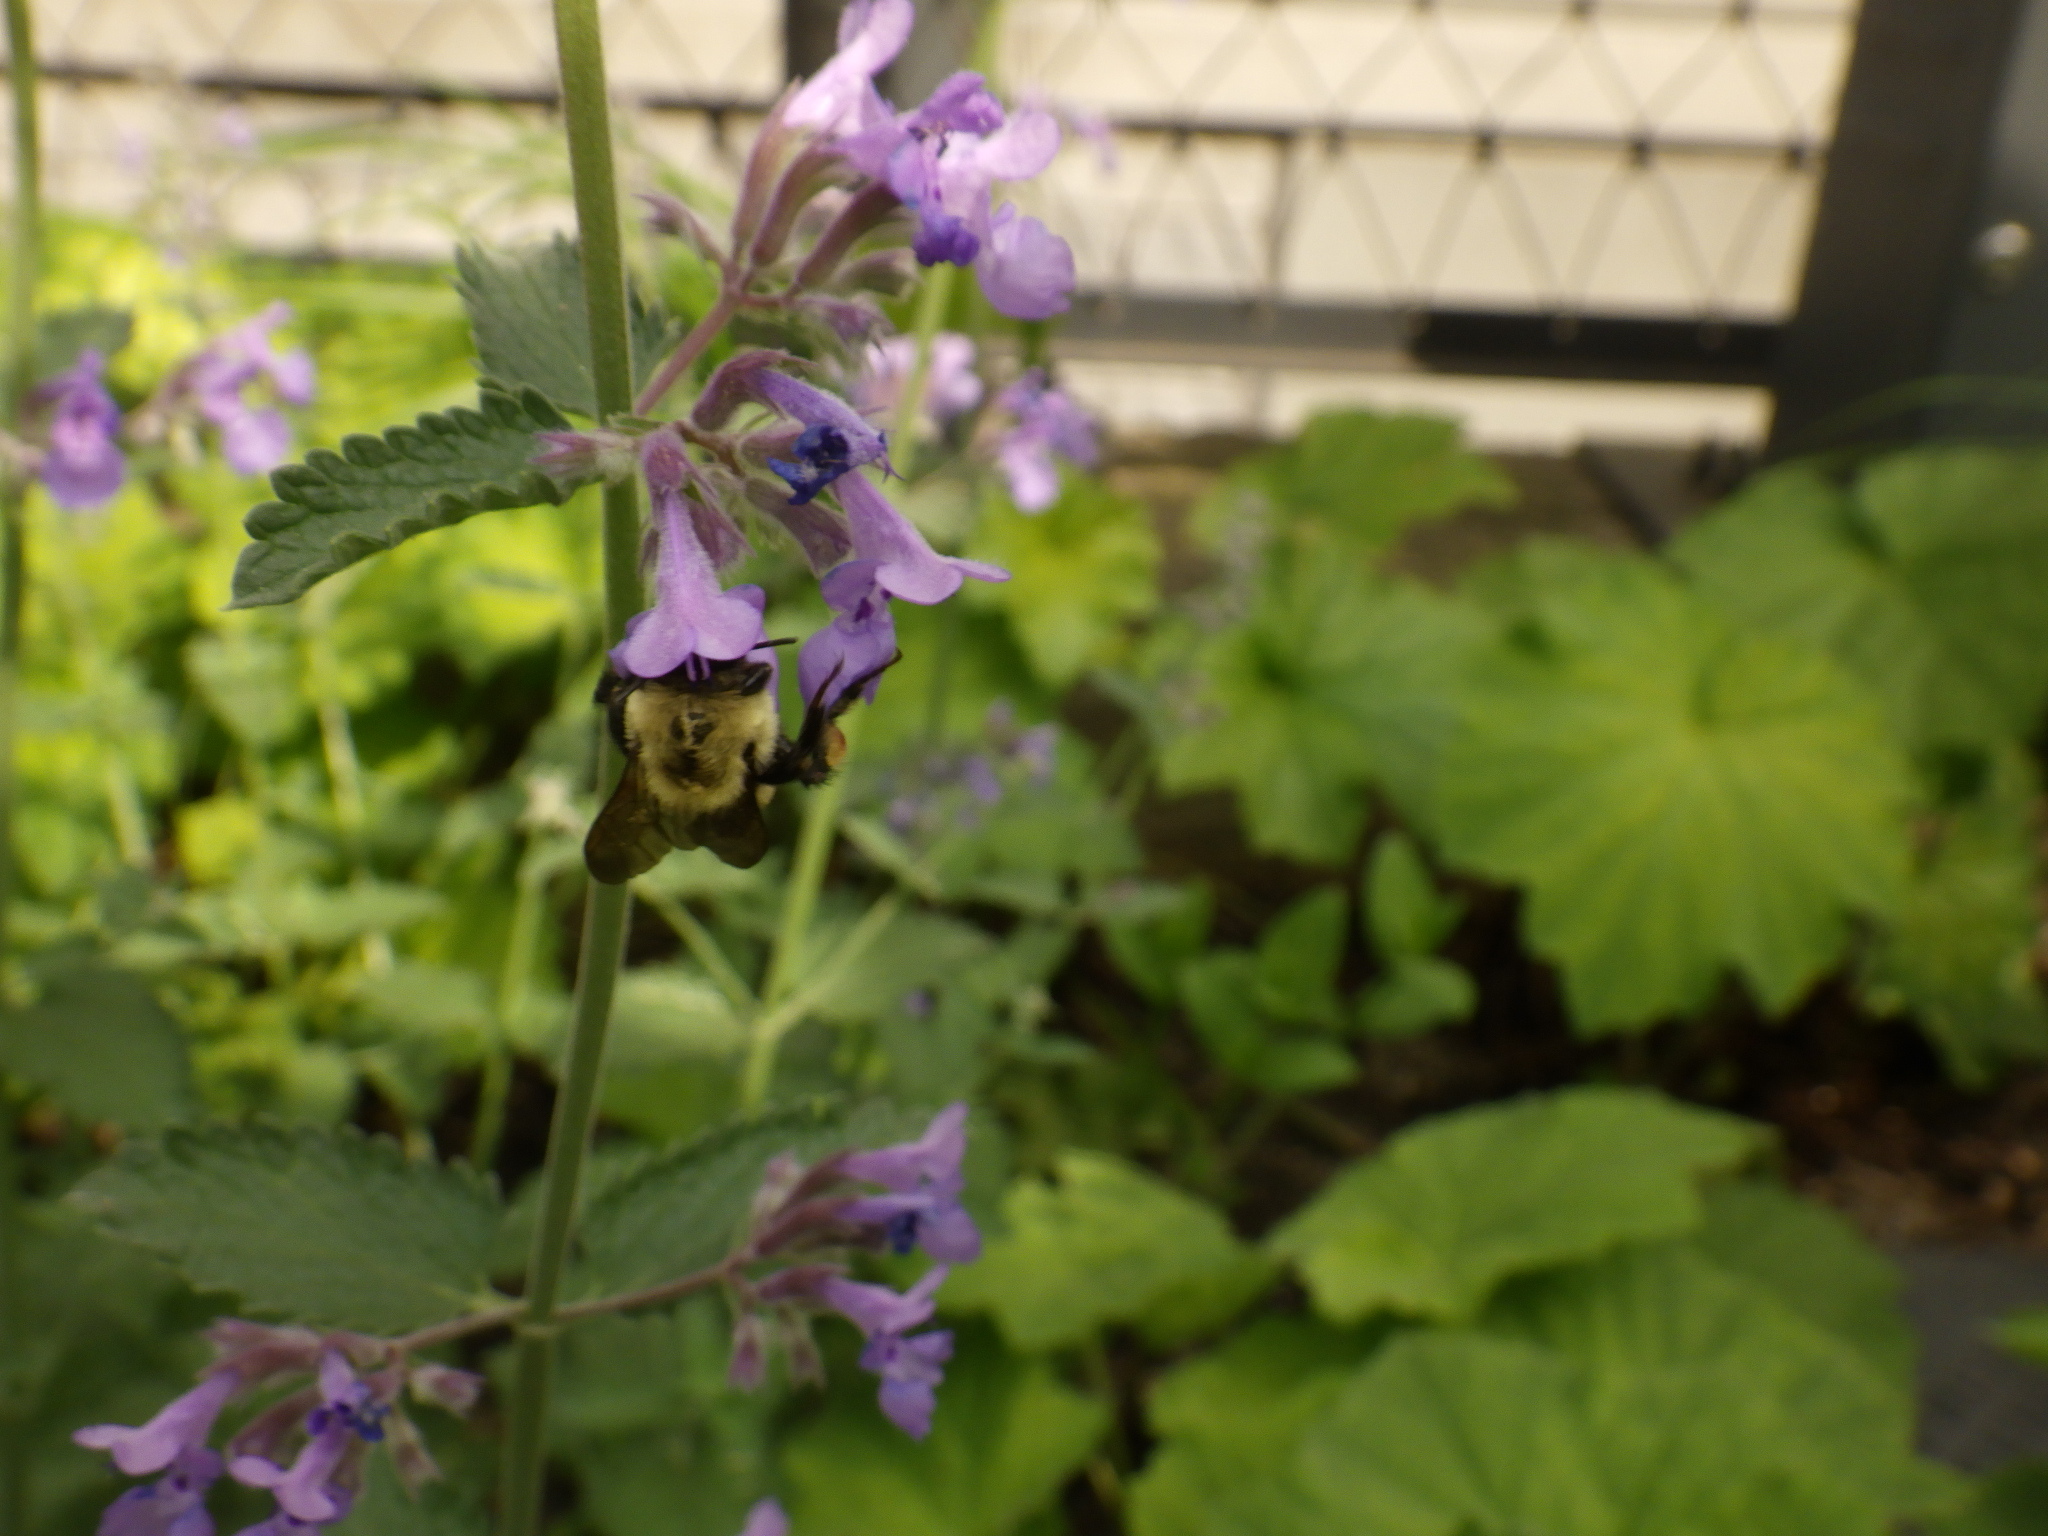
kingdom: Animalia
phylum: Arthropoda
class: Insecta
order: Hymenoptera
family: Apidae
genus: Bombus
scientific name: Bombus bimaculatus
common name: Two-spotted bumble bee
